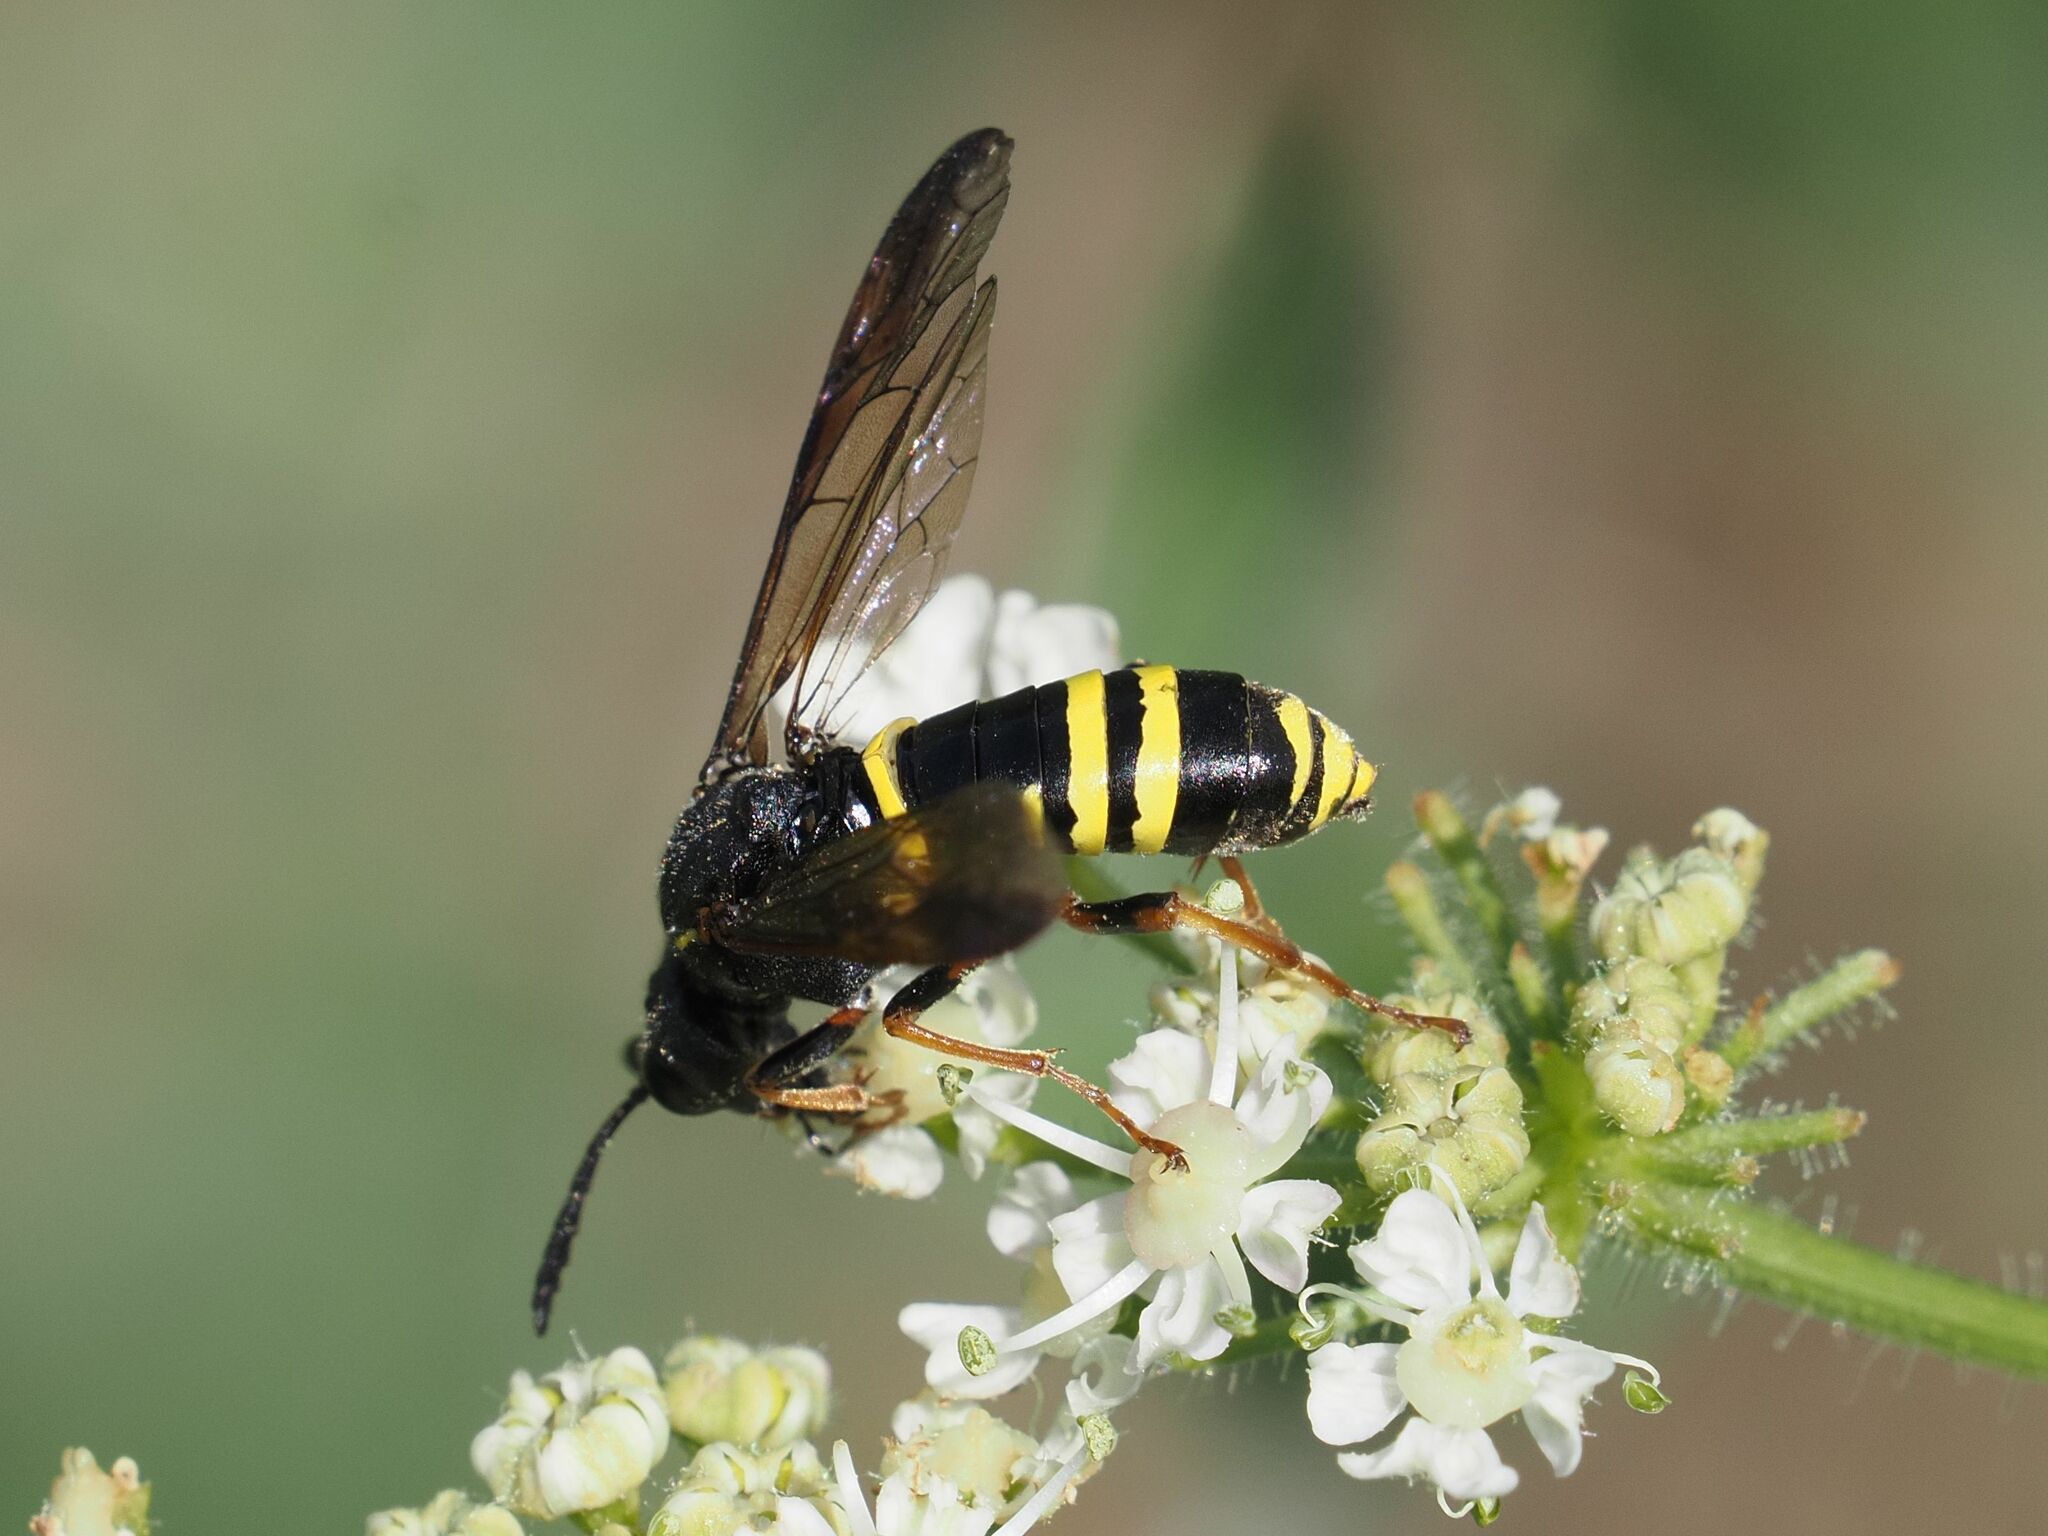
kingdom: Animalia
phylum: Arthropoda
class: Insecta
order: Hymenoptera
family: Tenthredinidae
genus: Tenthredo
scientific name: Tenthredo vespa
